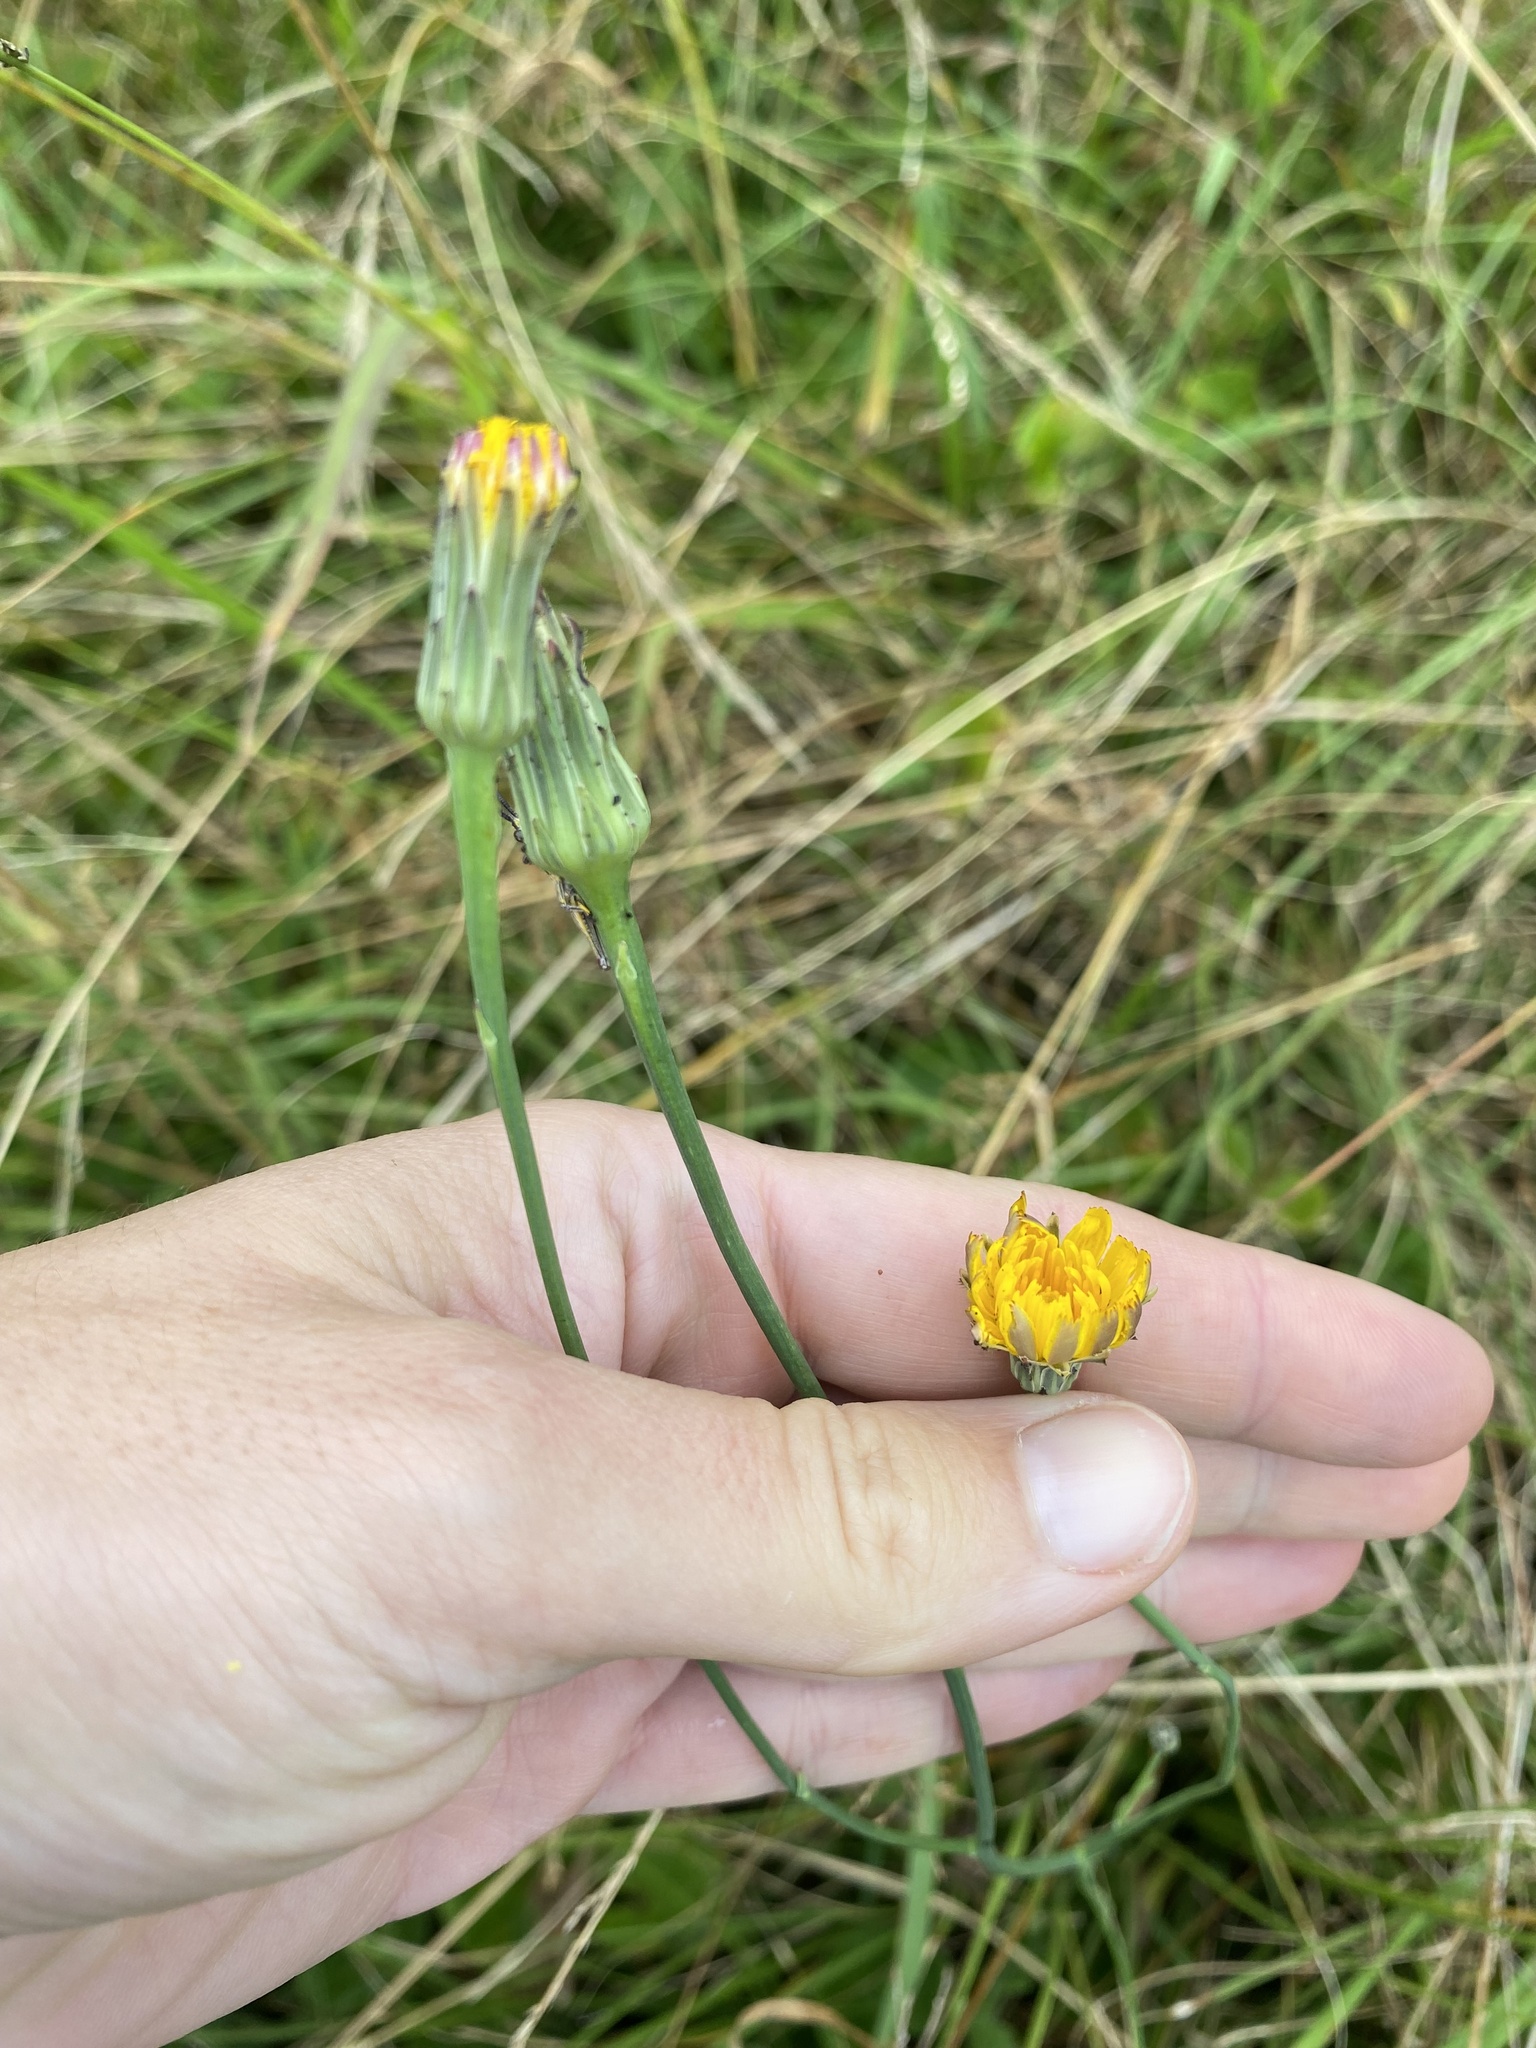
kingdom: Plantae
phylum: Tracheophyta
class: Magnoliopsida
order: Asterales
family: Asteraceae
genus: Hypochaeris
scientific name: Hypochaeris radicata
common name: Flatweed
